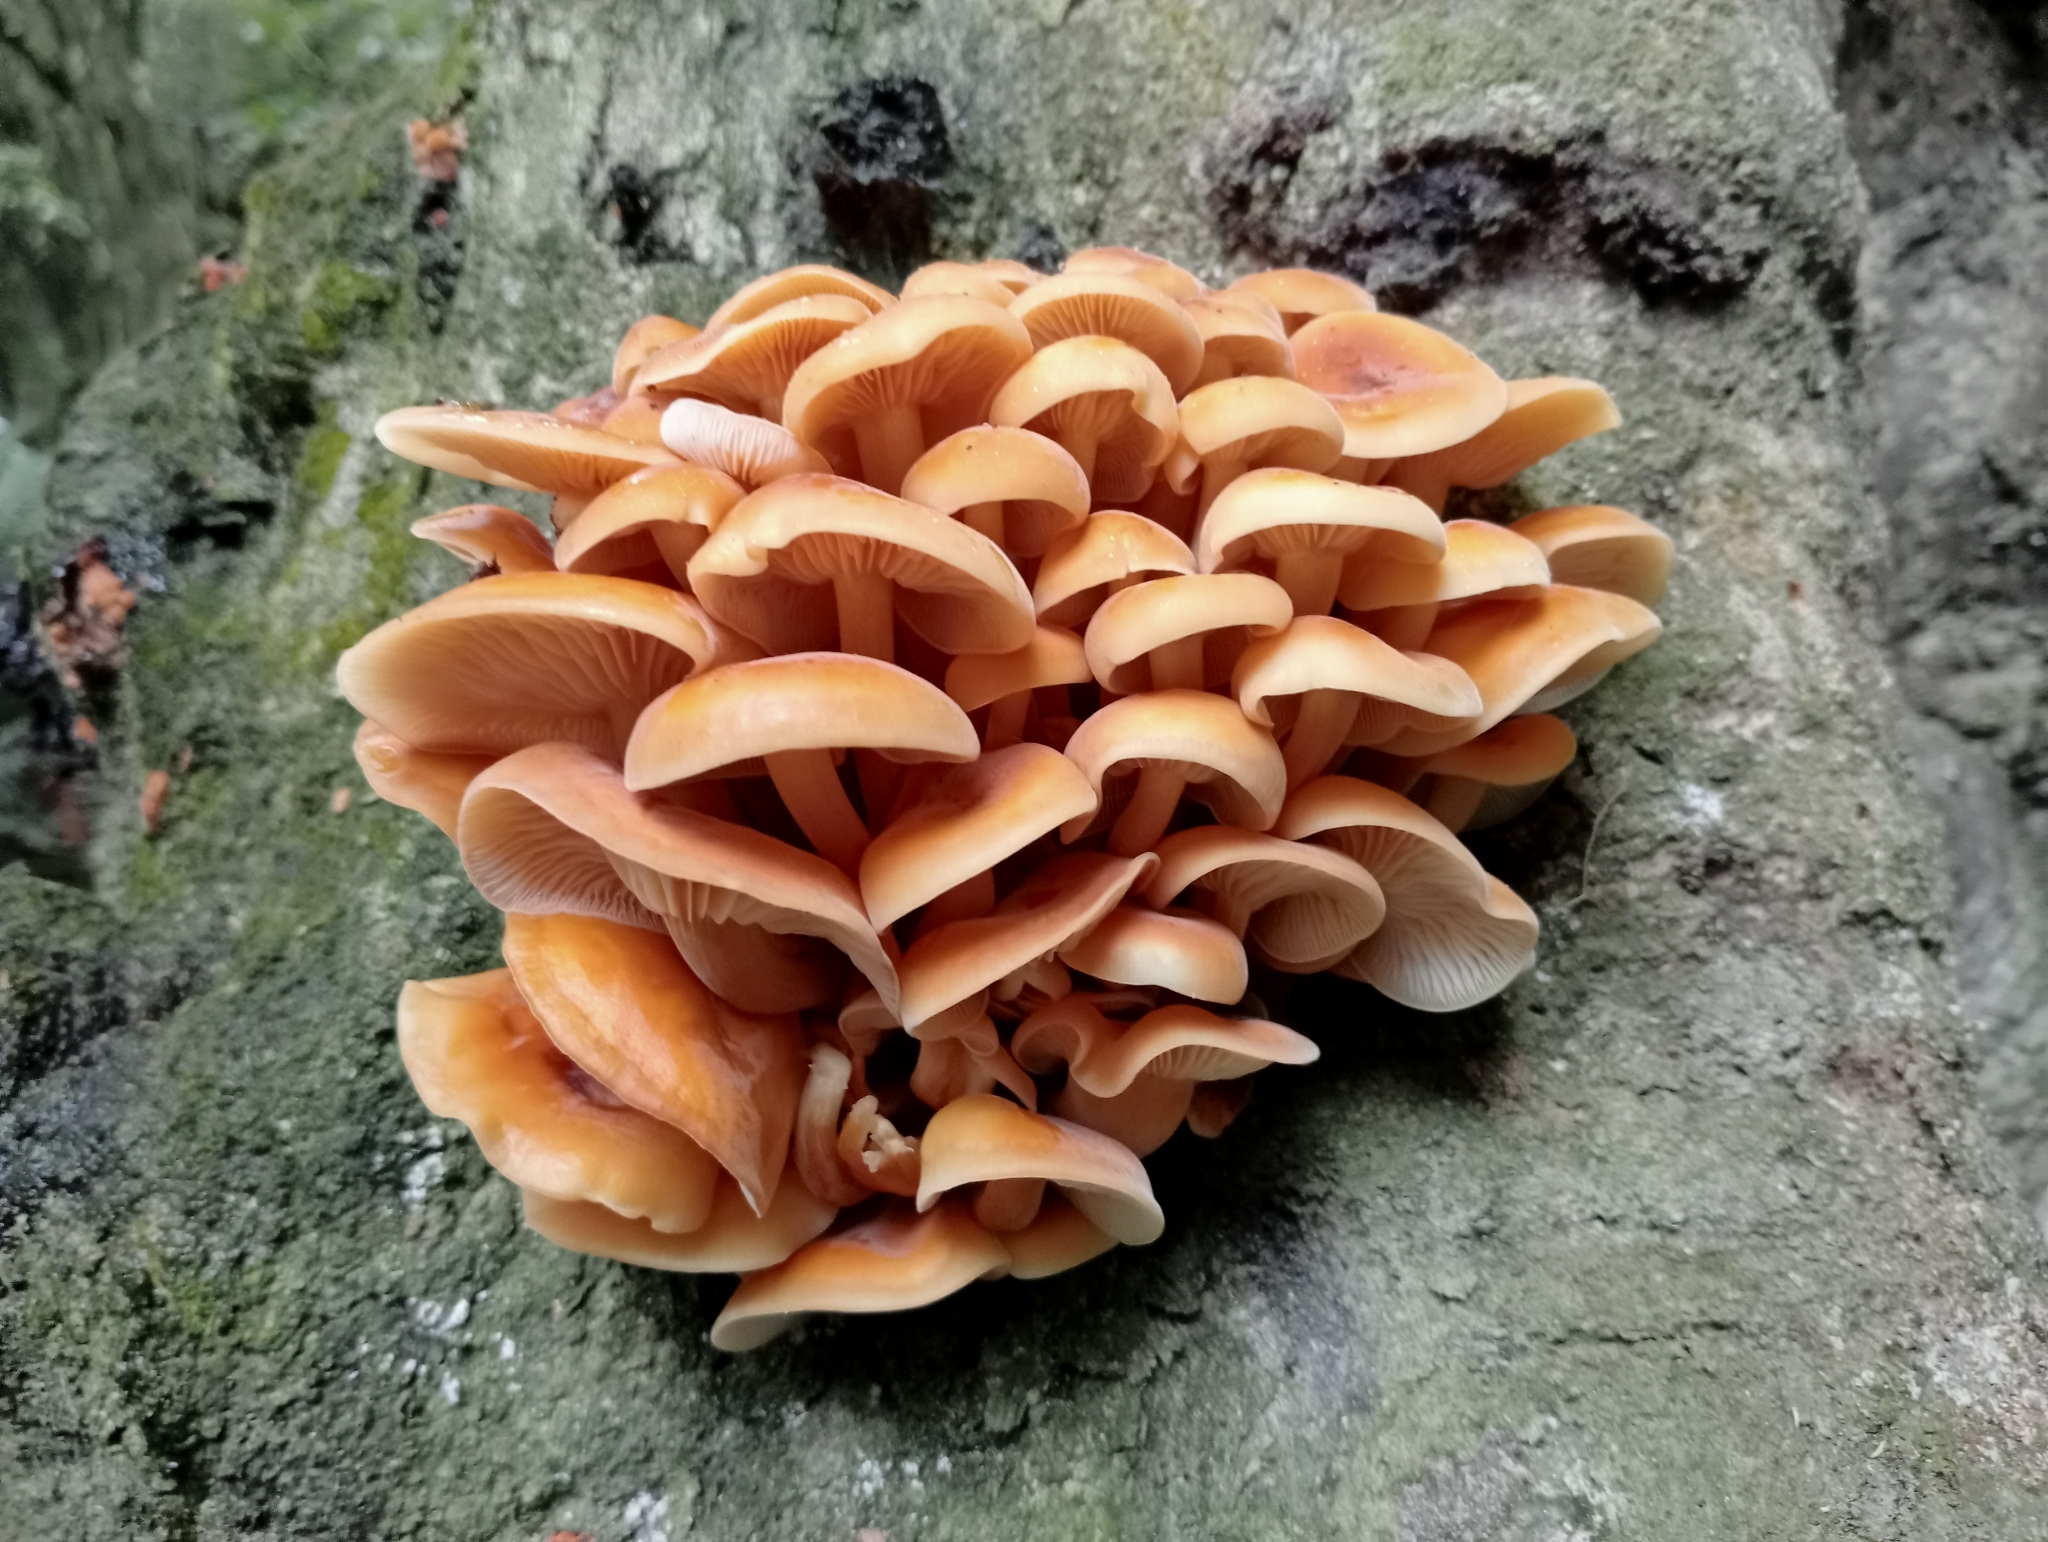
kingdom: Fungi
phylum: Basidiomycota
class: Agaricomycetes
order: Agaricales
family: Physalacriaceae
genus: Flammulina
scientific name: Flammulina velutipes
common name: Velvet shank
